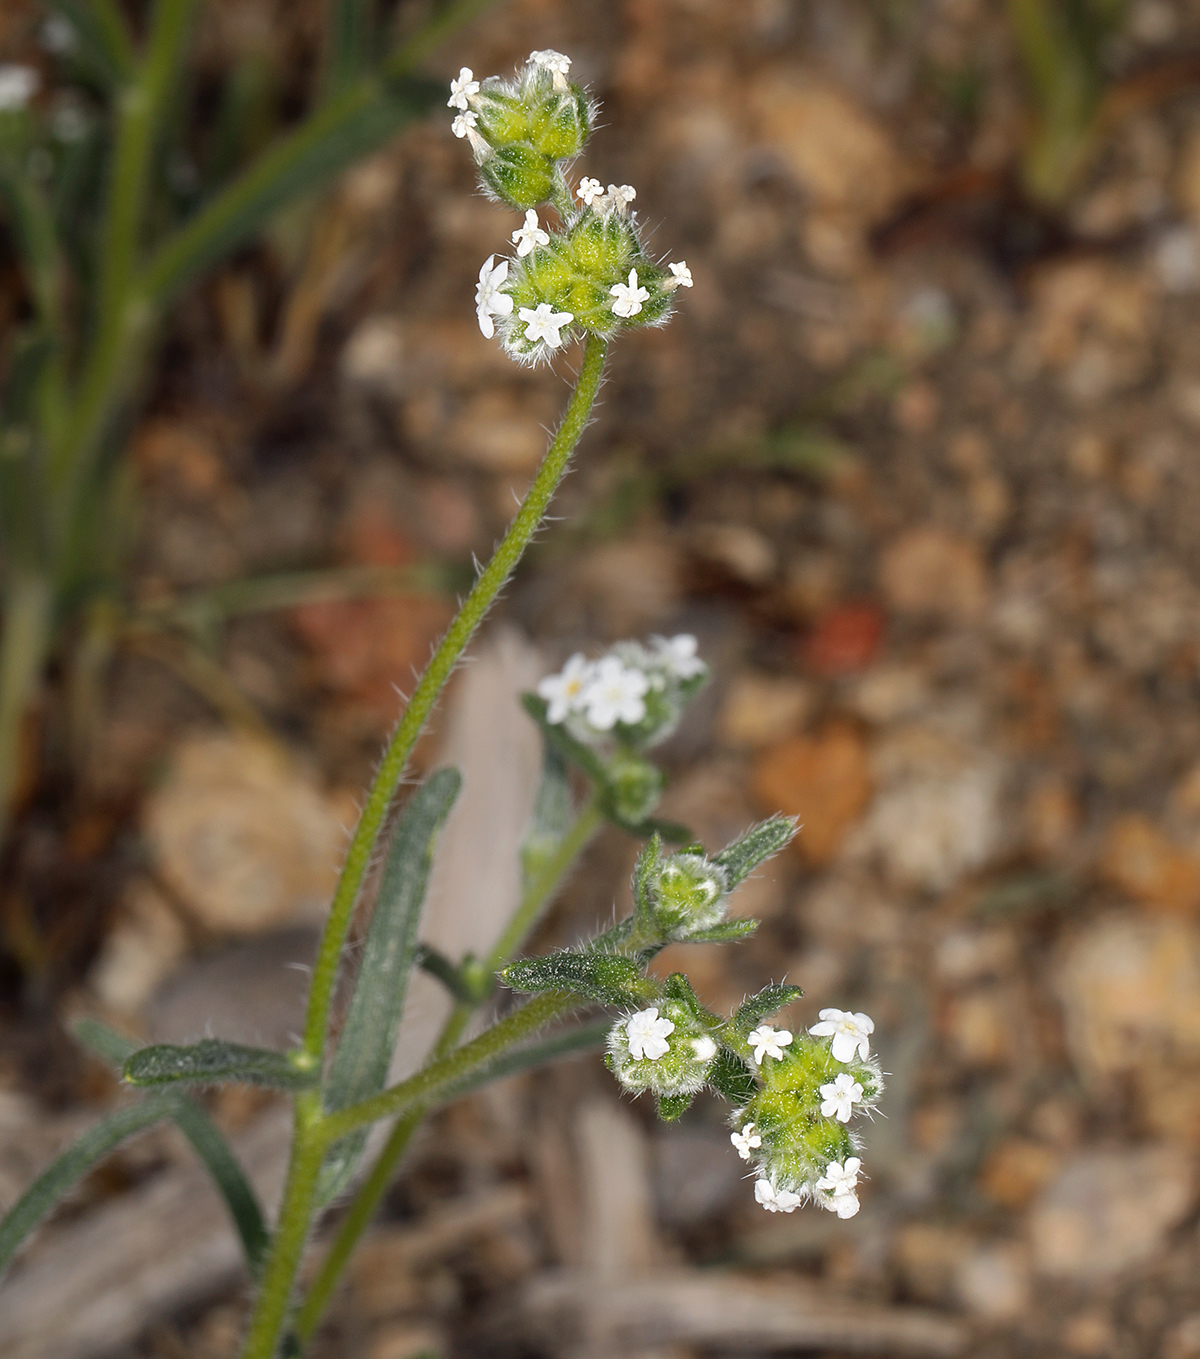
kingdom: Plantae
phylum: Tracheophyta
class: Magnoliopsida
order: Boraginales
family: Boraginaceae
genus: Cryptantha
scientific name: Cryptantha pterocarya
